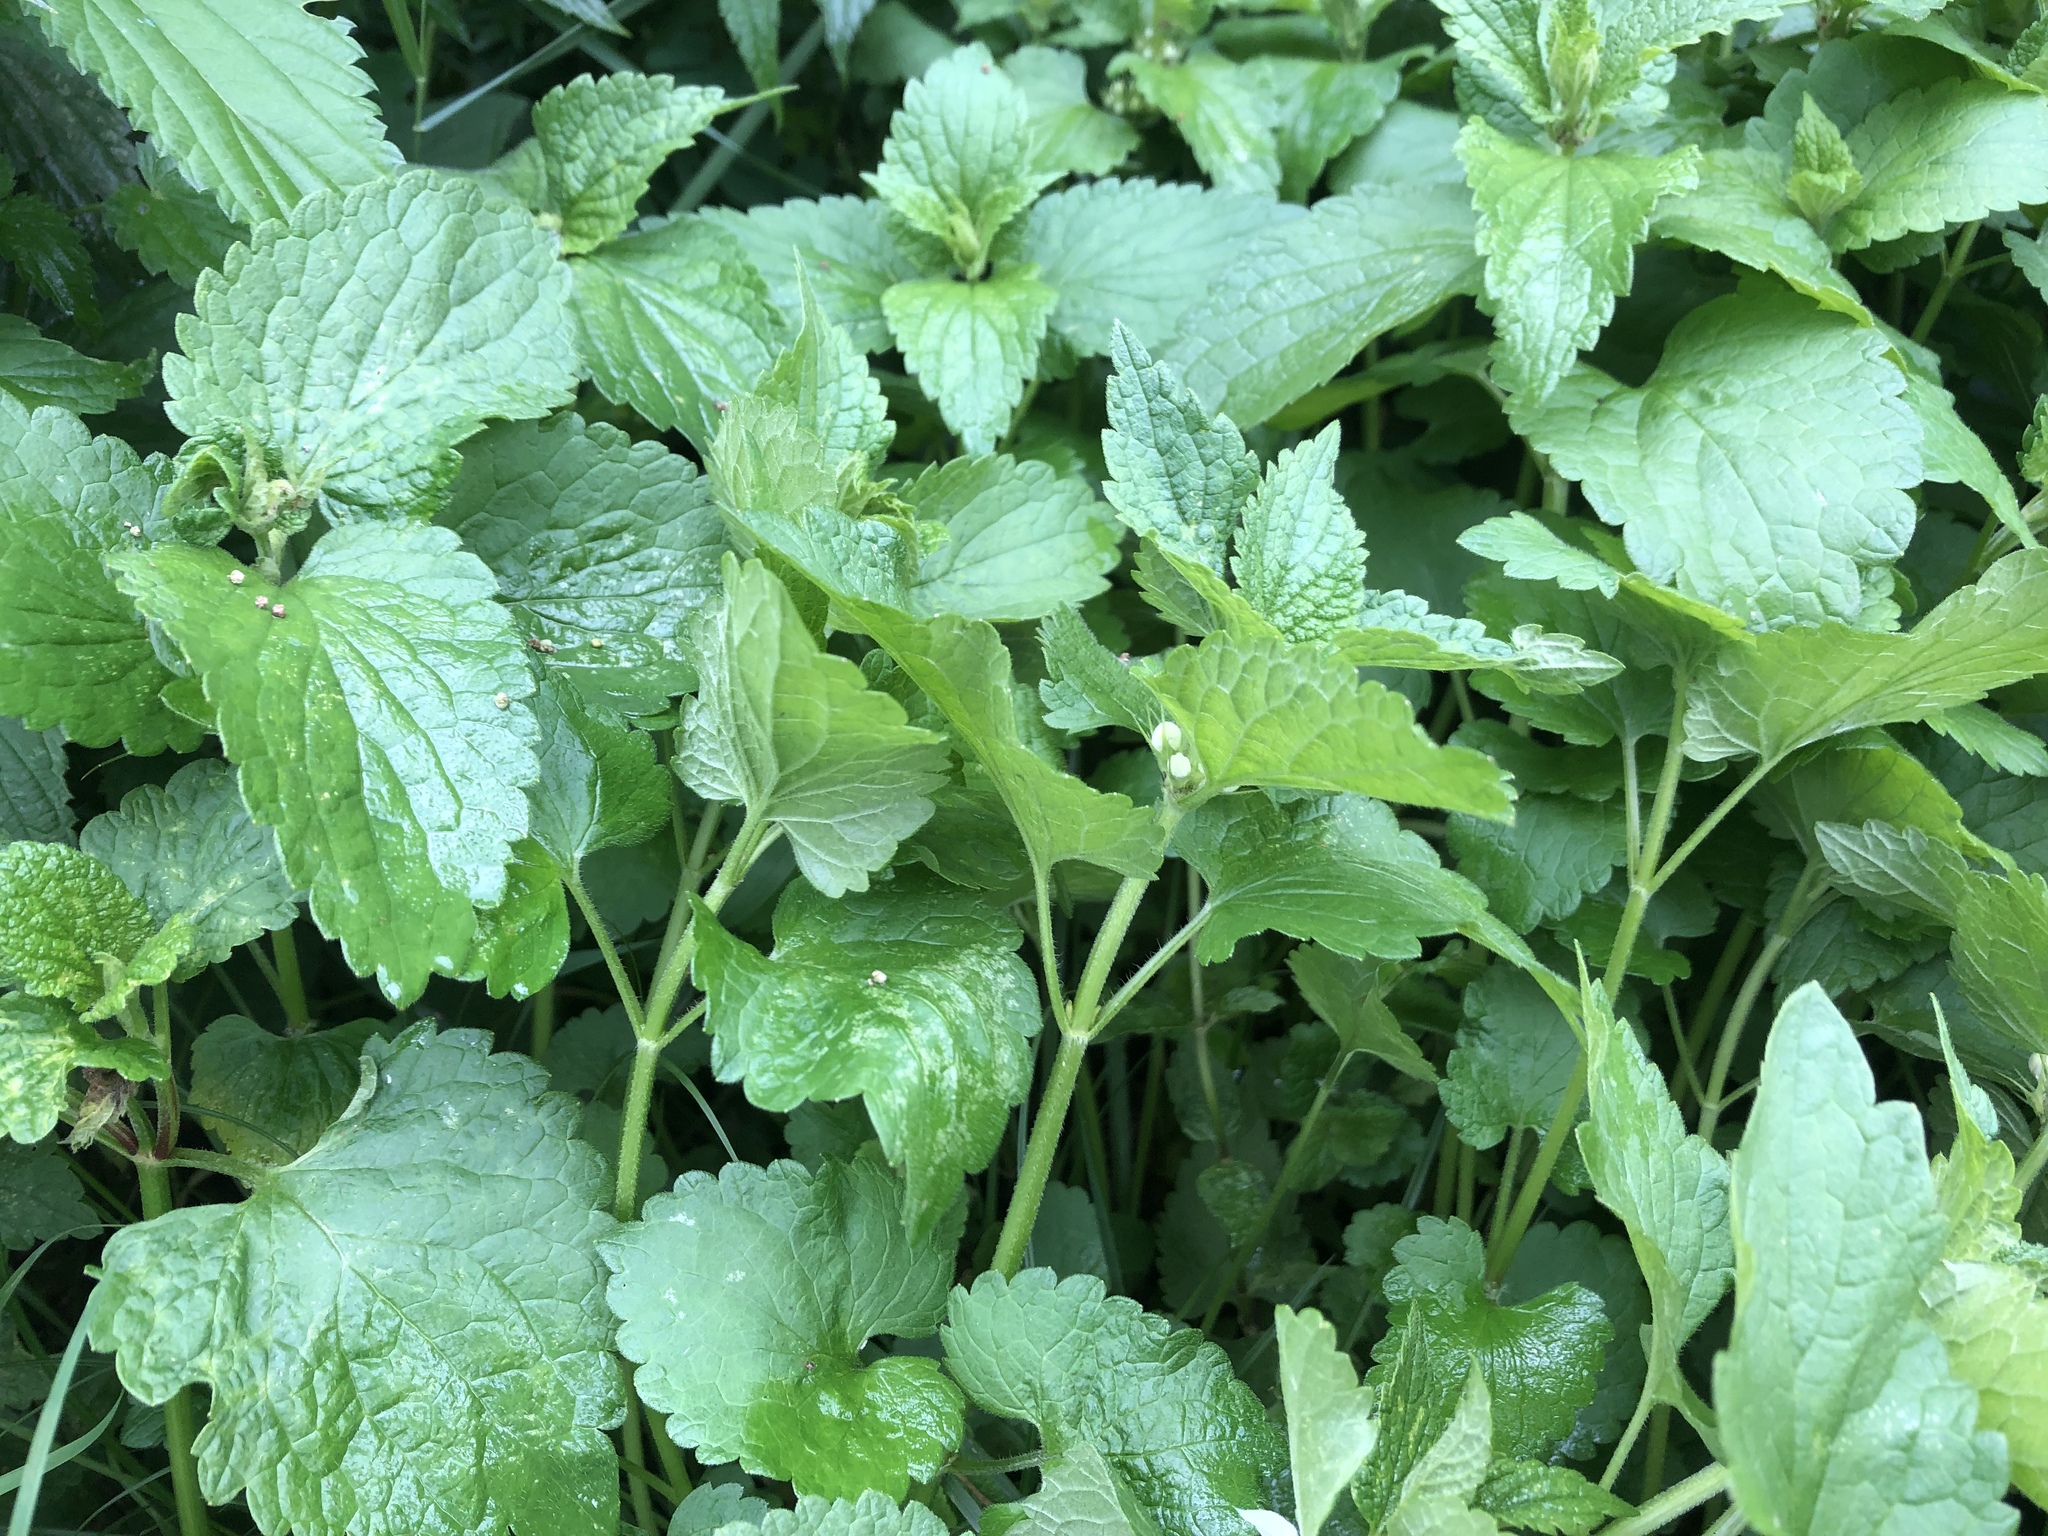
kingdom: Plantae
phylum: Tracheophyta
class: Magnoliopsida
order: Lamiales
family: Lamiaceae
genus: Lamium
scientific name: Lamium album
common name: White dead-nettle
